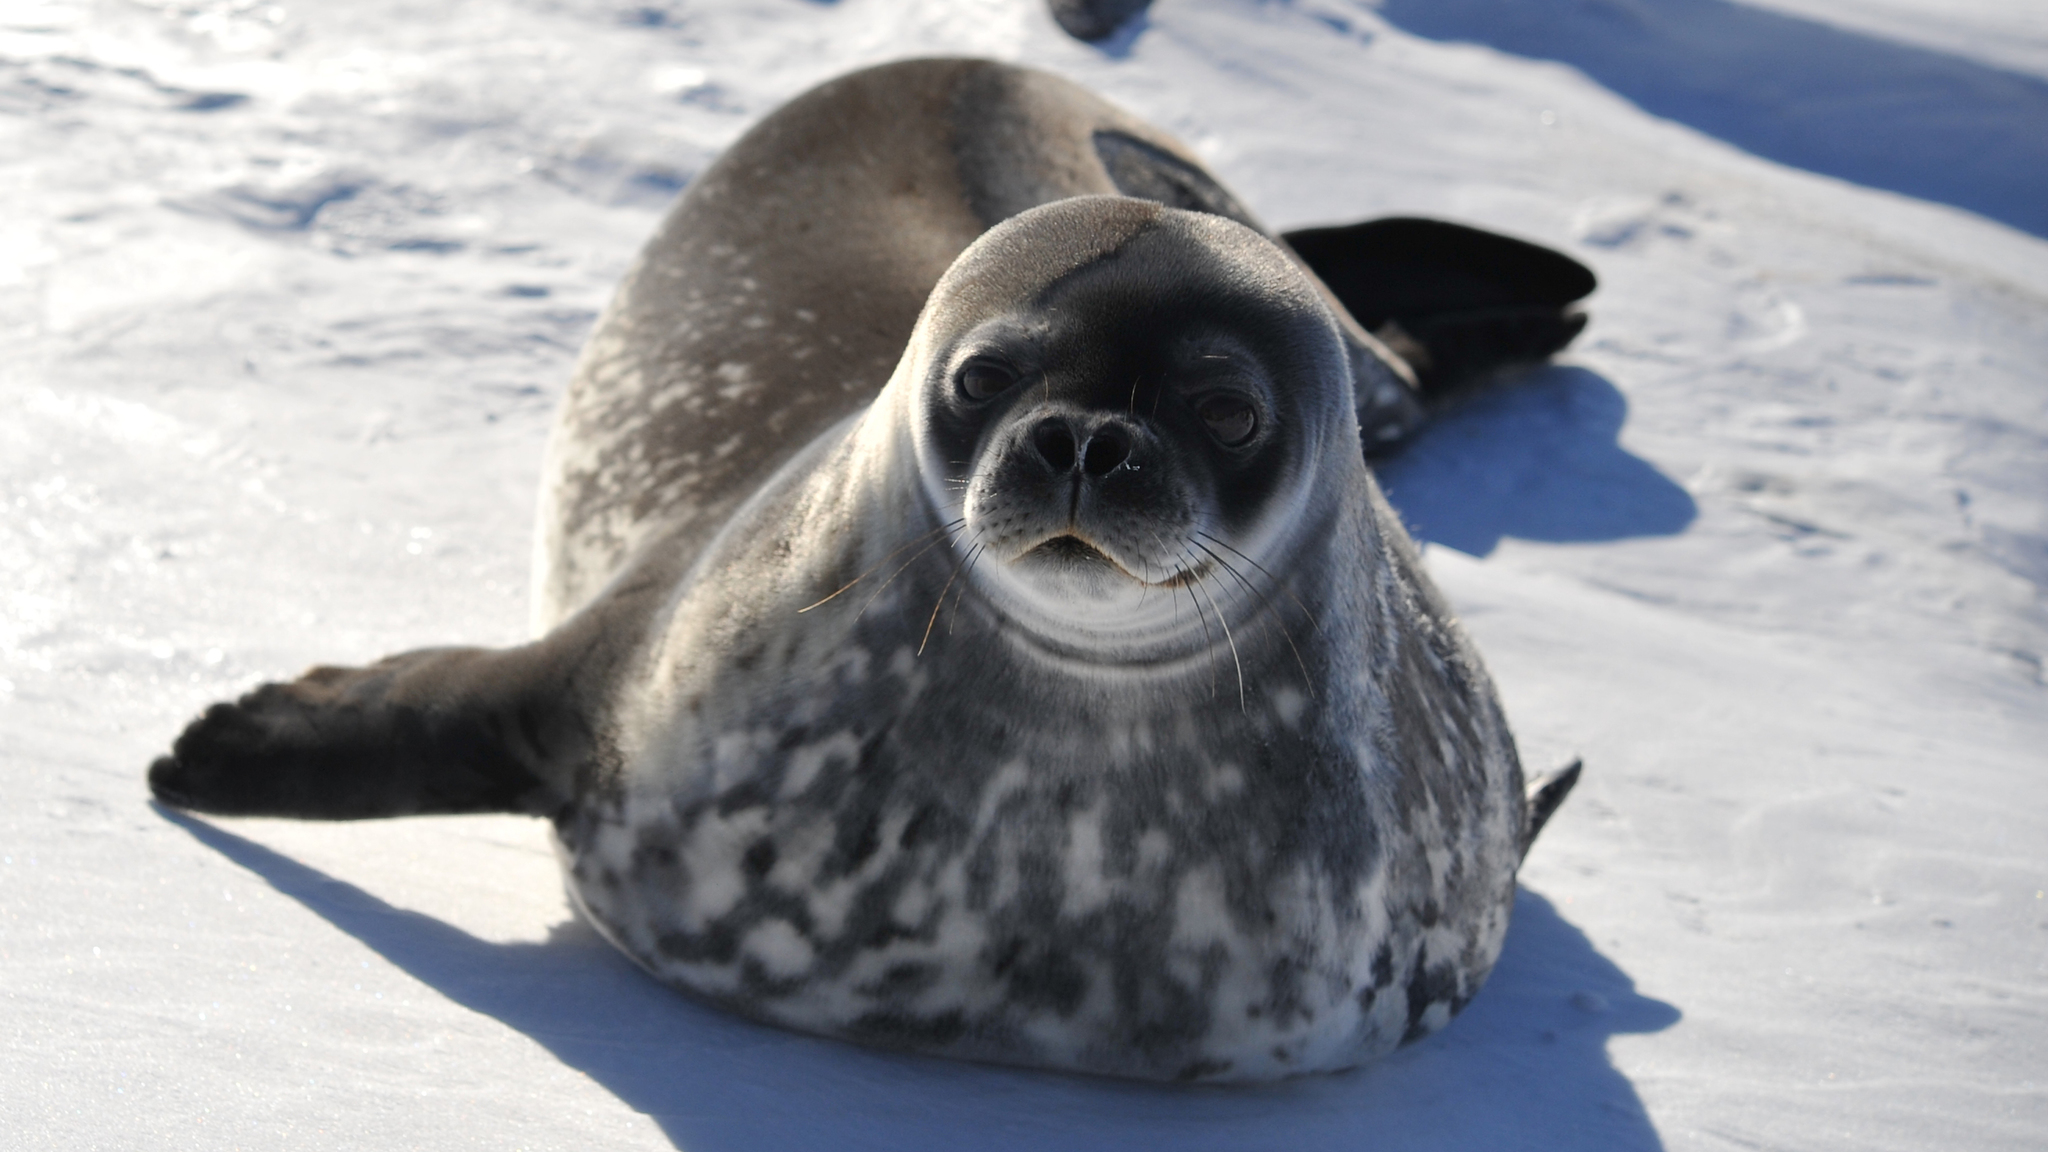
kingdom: Animalia
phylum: Chordata
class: Mammalia
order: Carnivora
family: Phocidae
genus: Leptonychotes
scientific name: Leptonychotes weddellii
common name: Weddell seal
